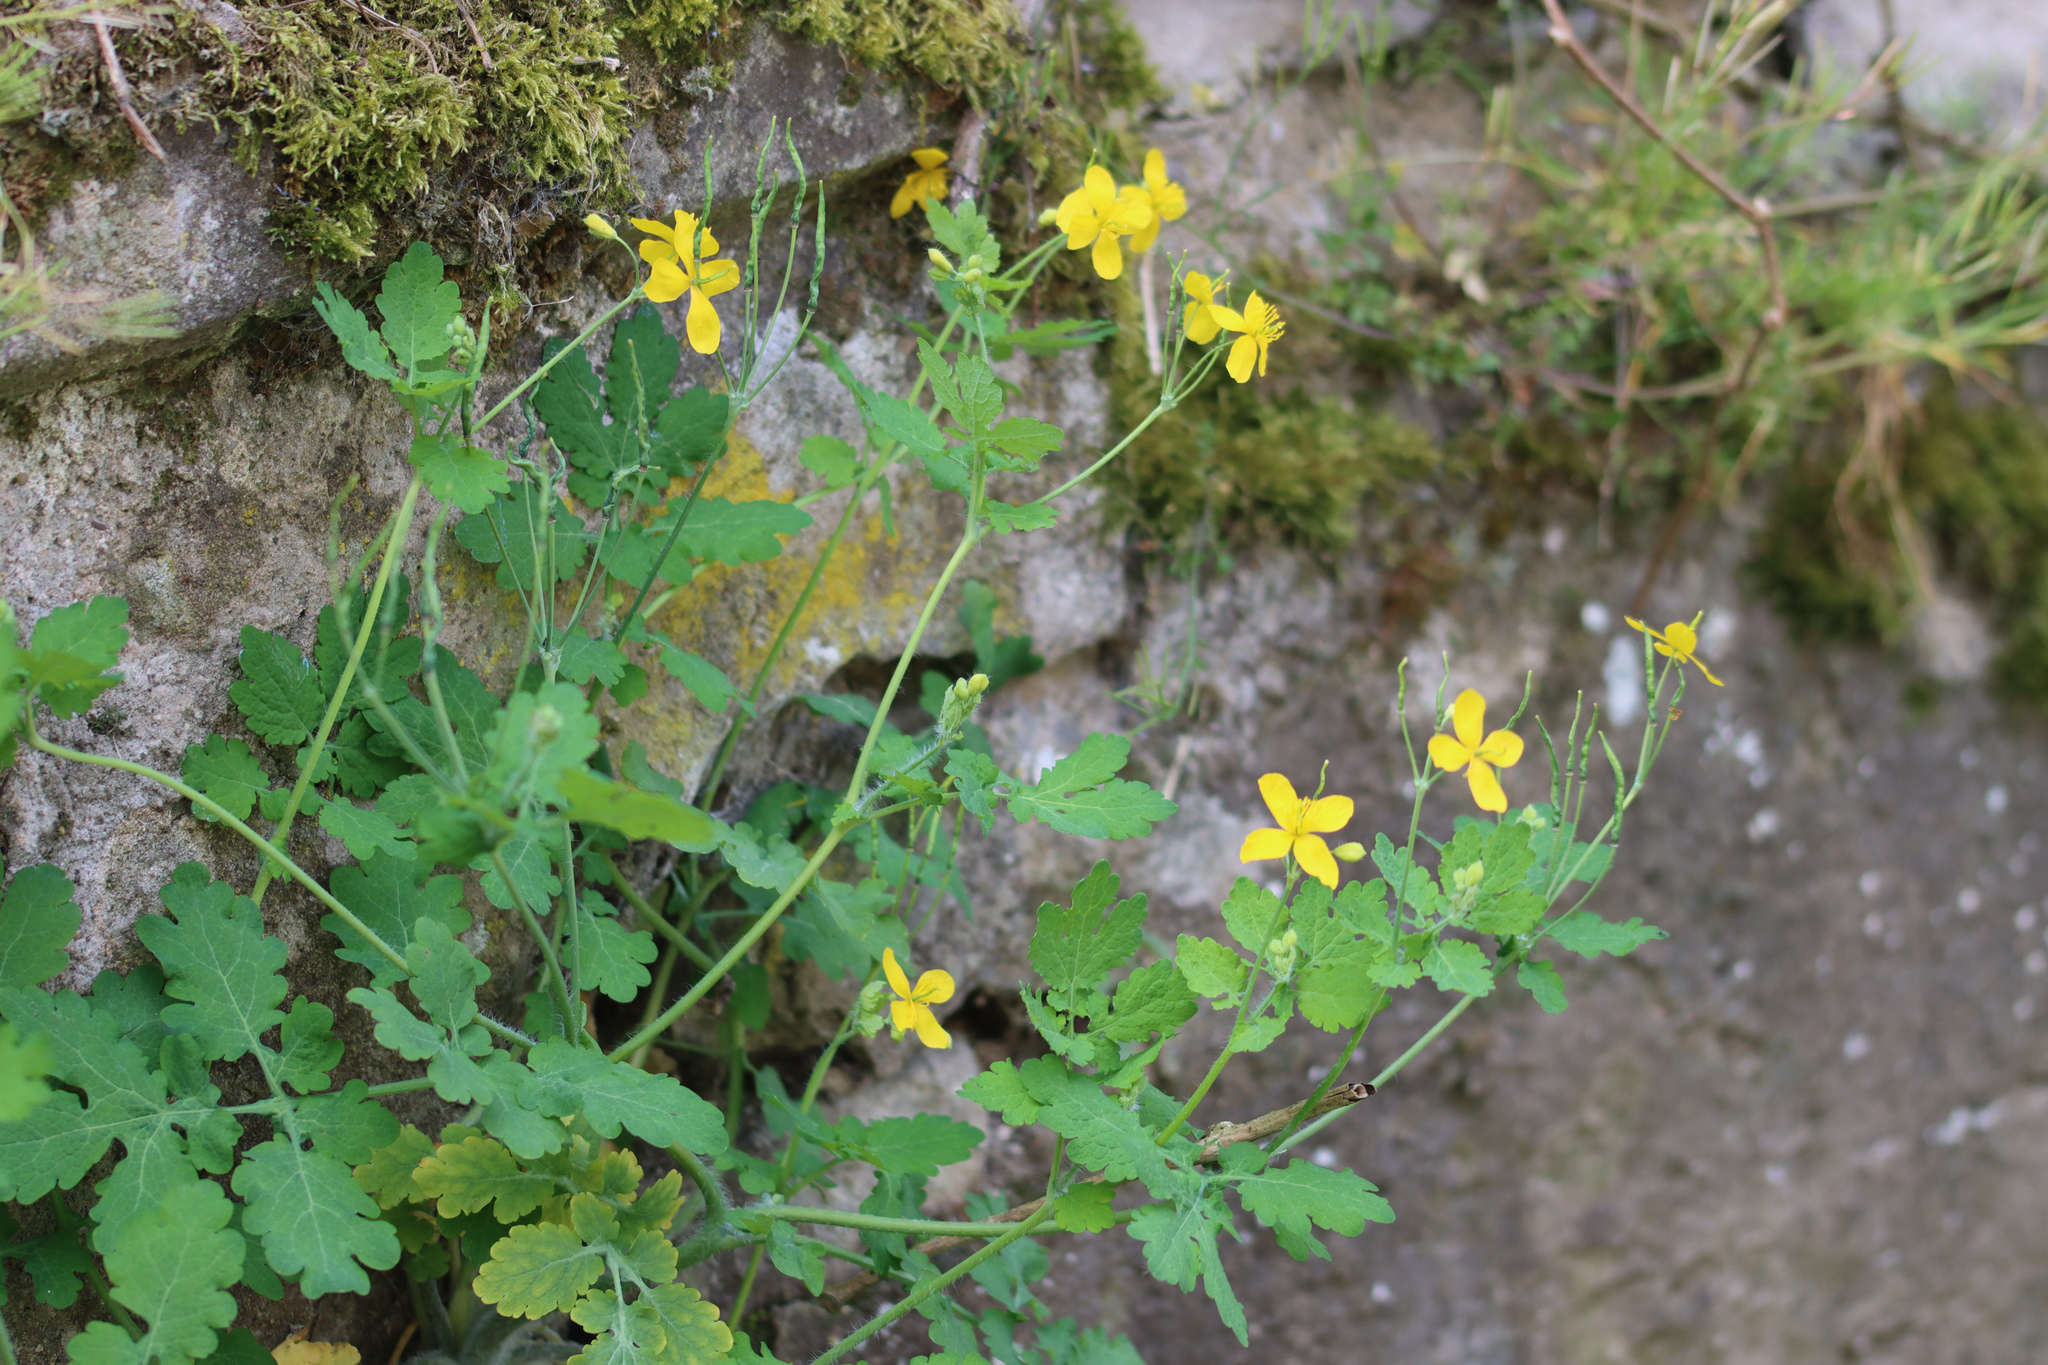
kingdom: Plantae
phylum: Tracheophyta
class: Magnoliopsida
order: Ranunculales
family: Papaveraceae
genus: Chelidonium
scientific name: Chelidonium majus
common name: Greater celandine
